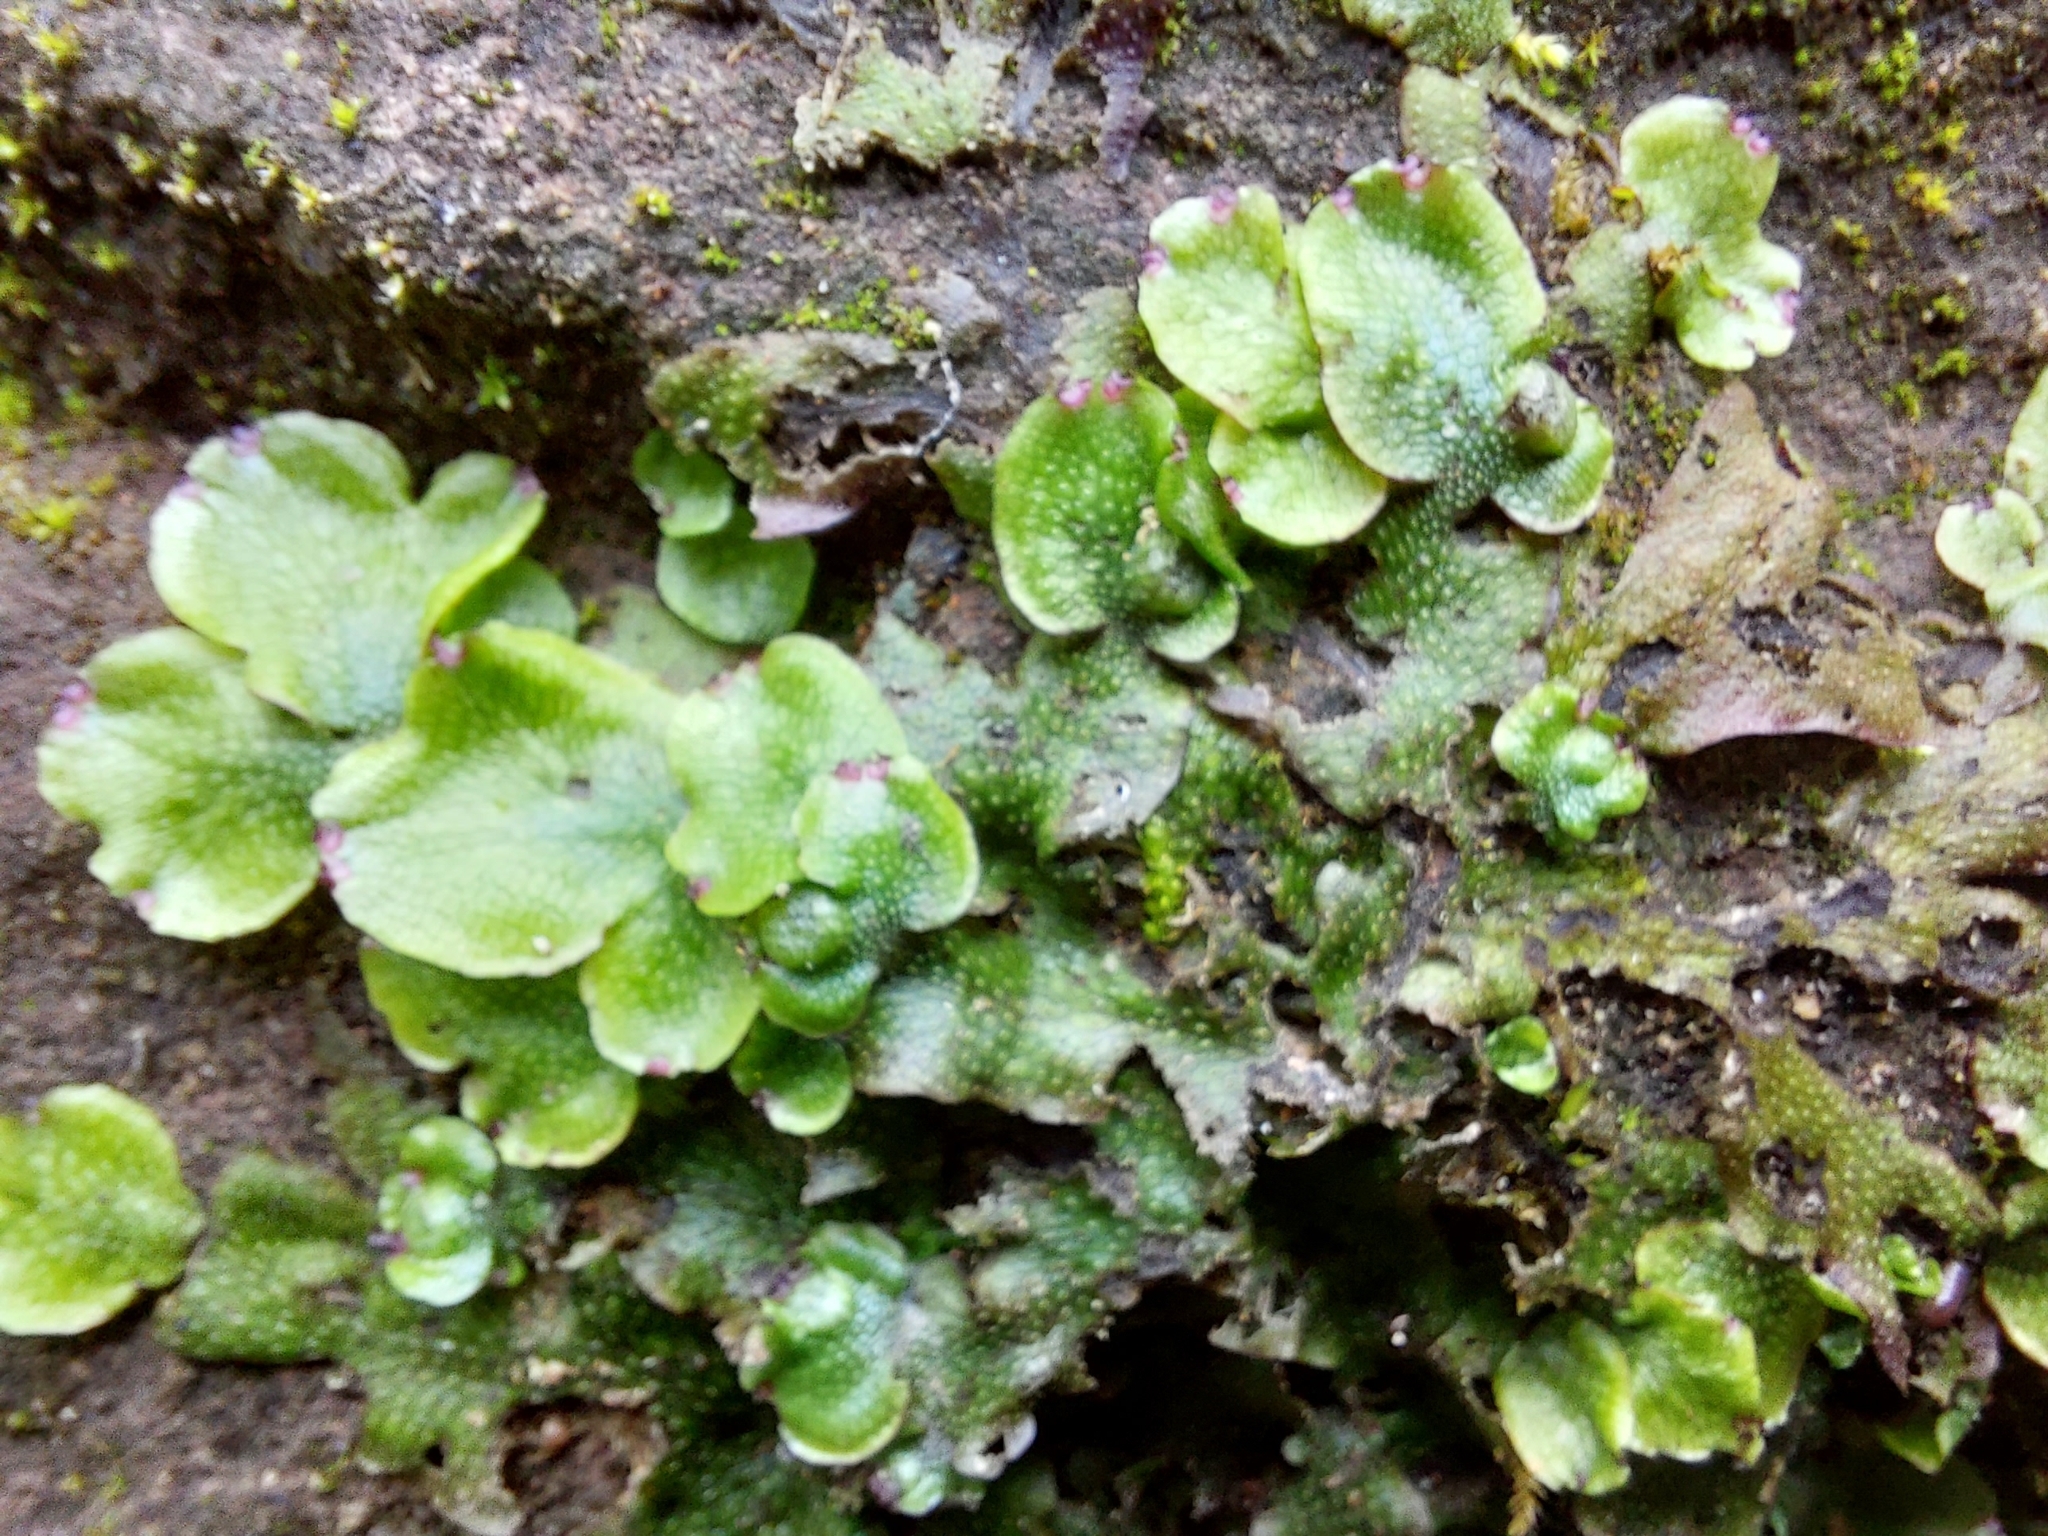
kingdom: Plantae
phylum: Marchantiophyta
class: Marchantiopsida
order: Marchantiales
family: Conocephalaceae
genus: Conocephalum
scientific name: Conocephalum conicum
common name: Great scented liverwort
